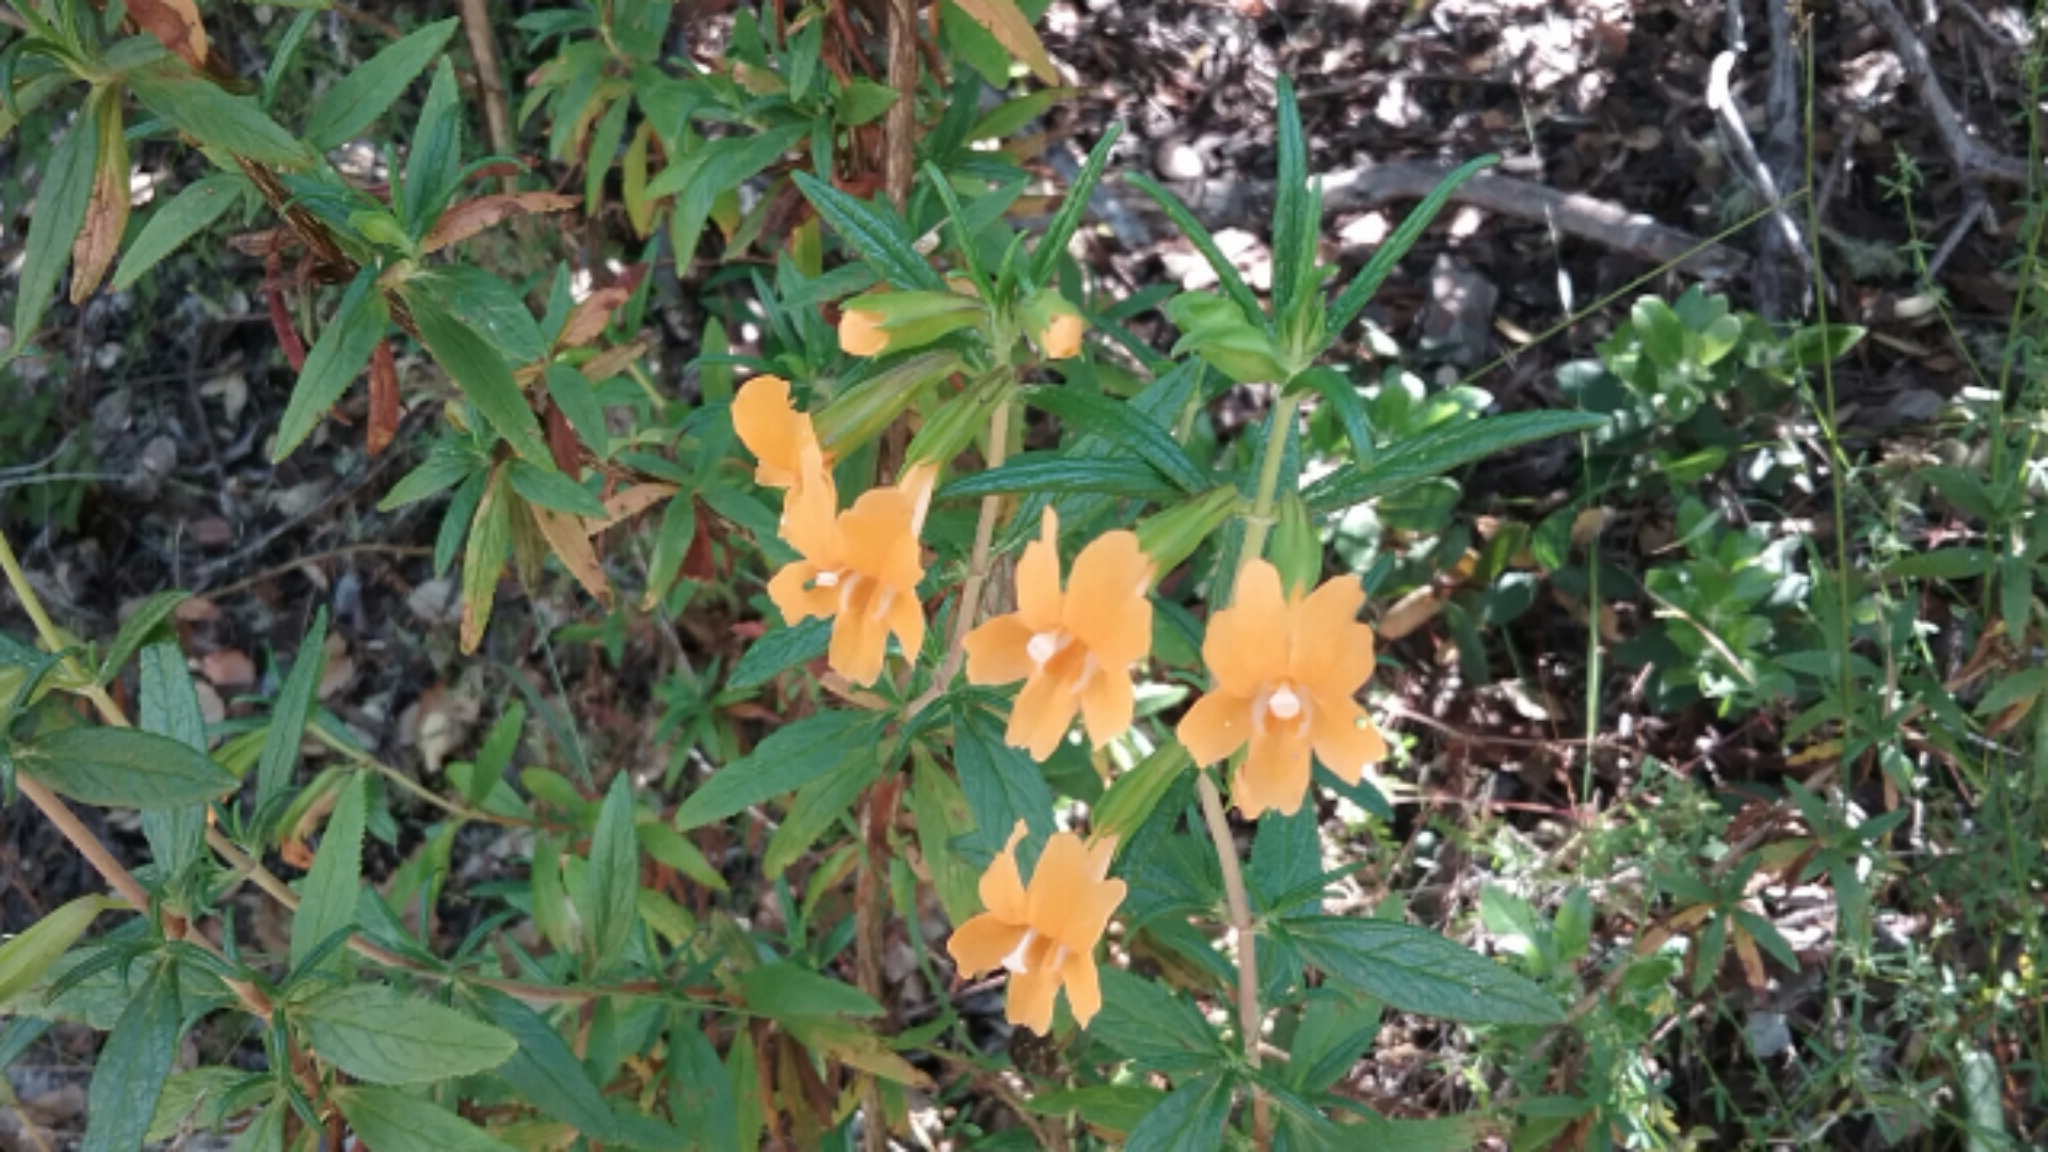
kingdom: Plantae
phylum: Tracheophyta
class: Magnoliopsida
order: Lamiales
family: Phrymaceae
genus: Diplacus
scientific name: Diplacus aurantiacus
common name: Bush monkey-flower
